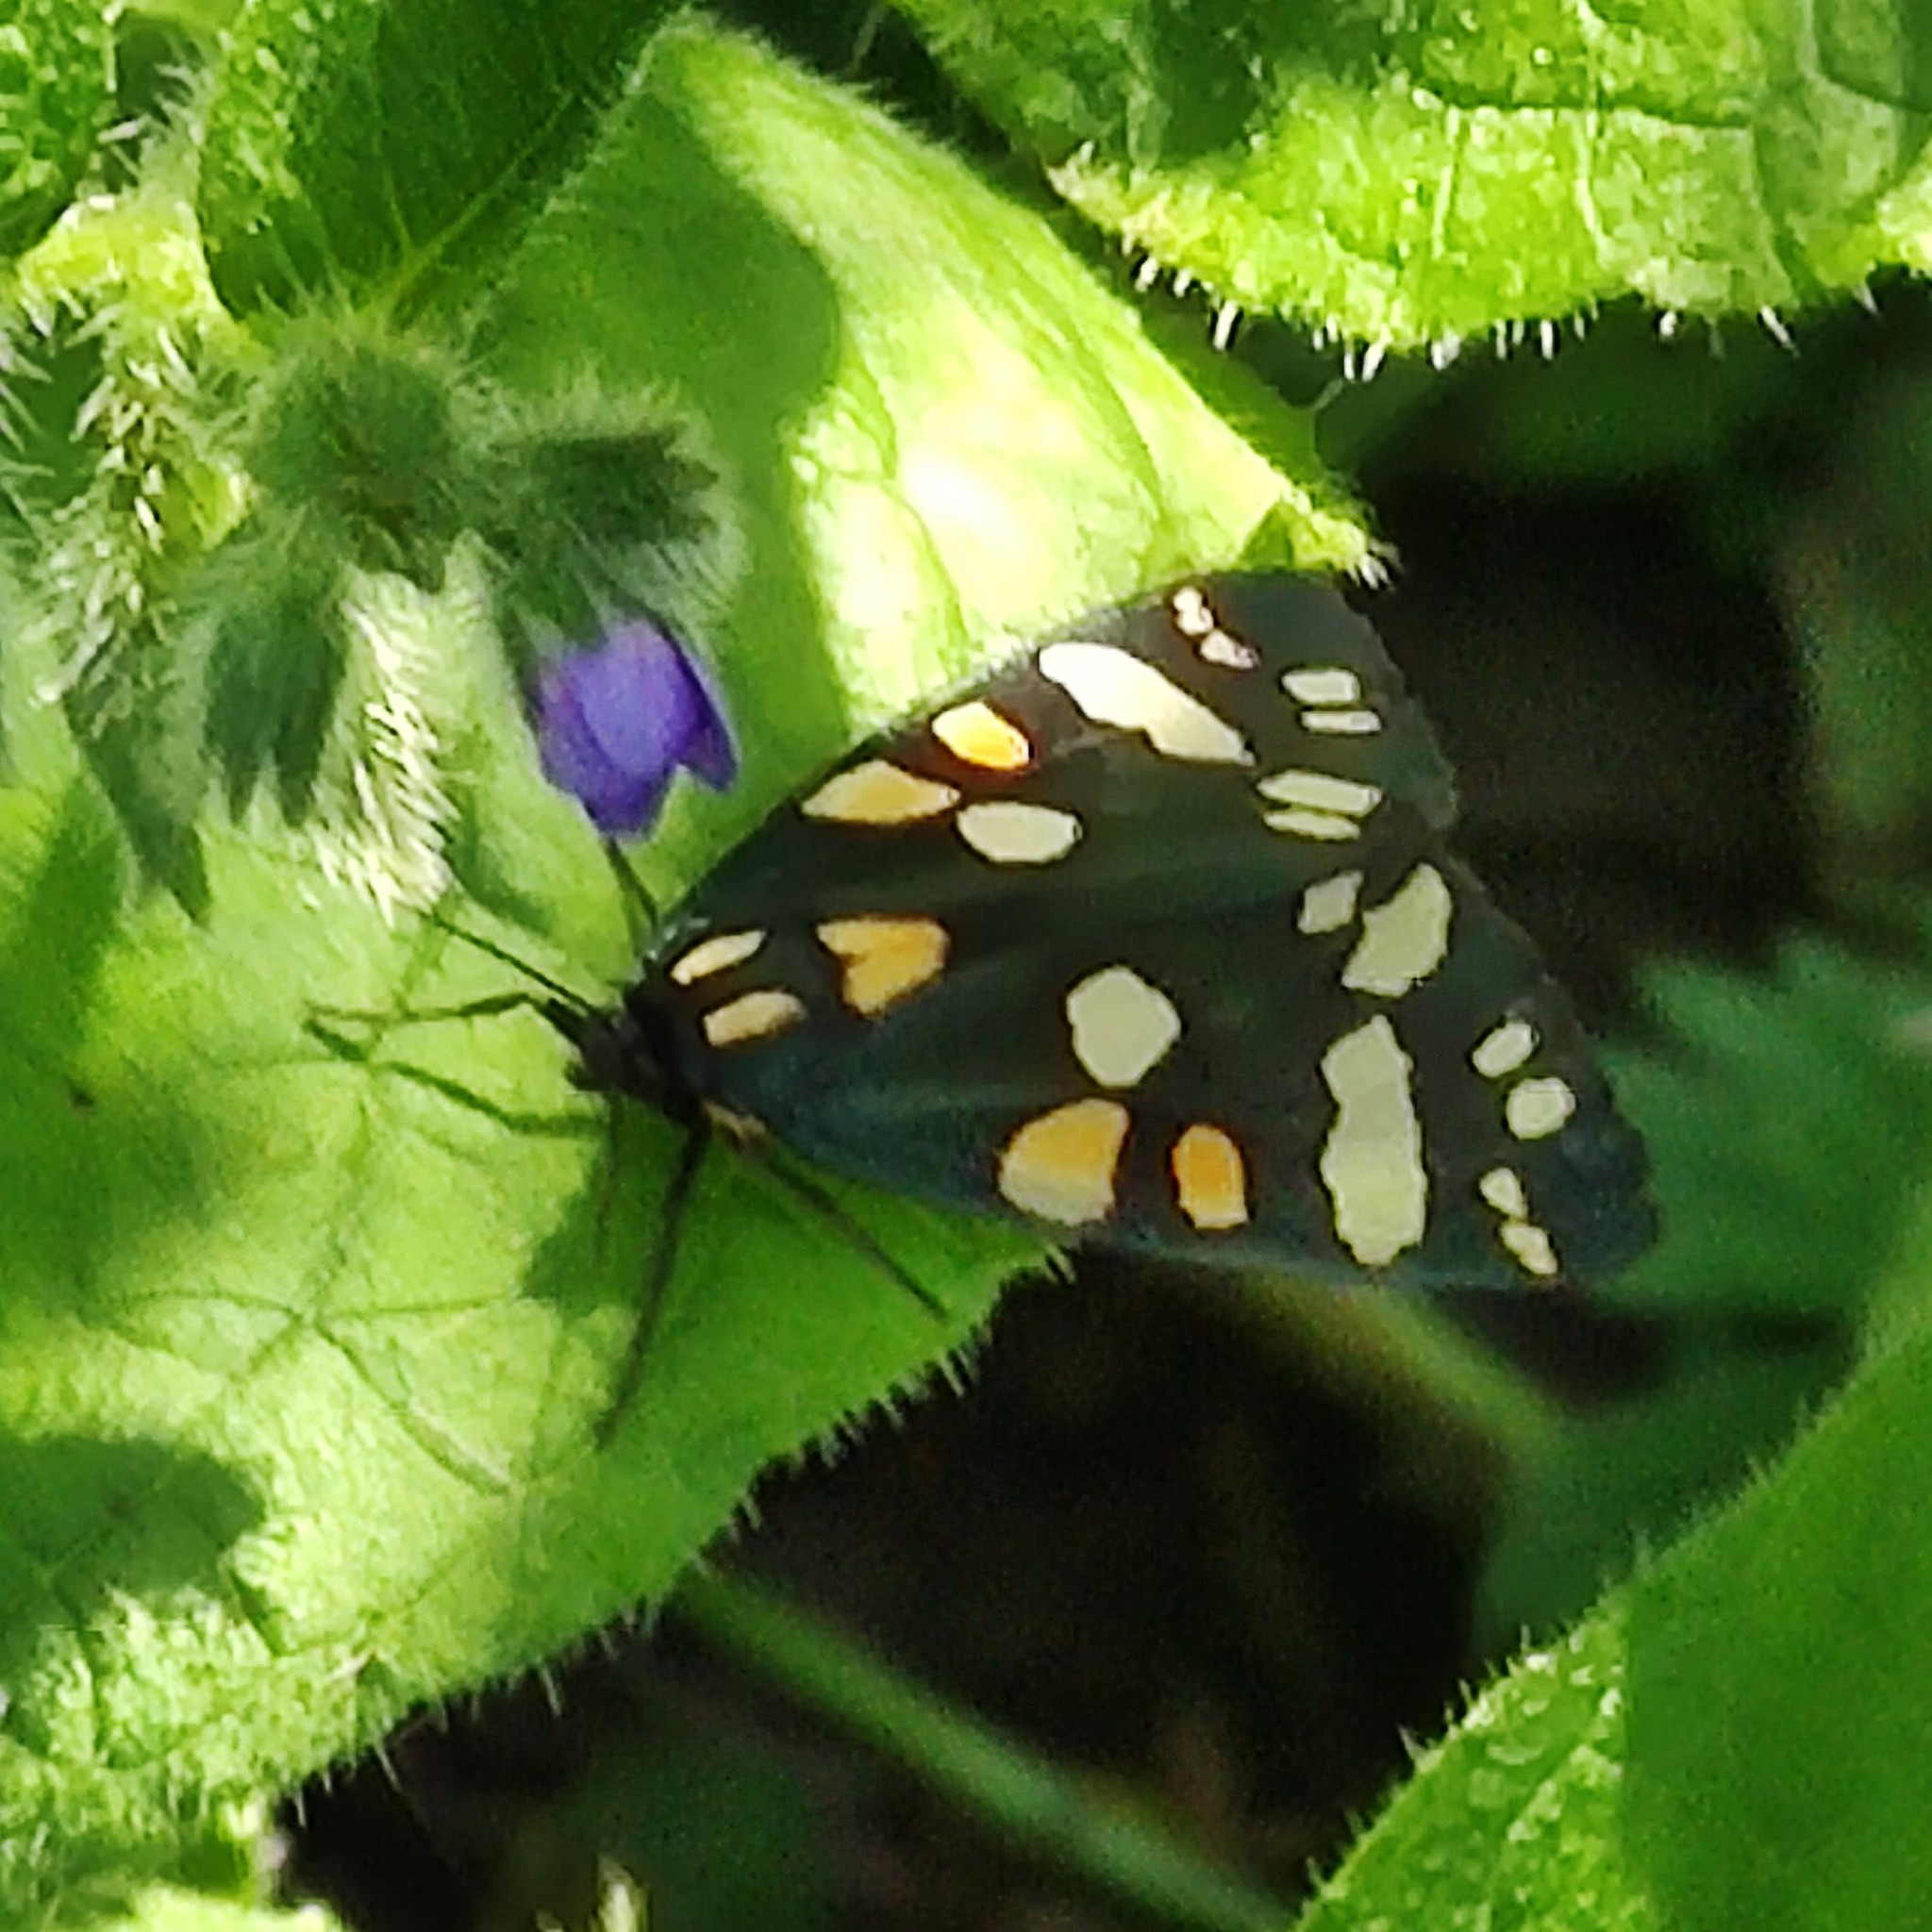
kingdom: Animalia
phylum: Arthropoda
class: Insecta
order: Lepidoptera
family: Erebidae
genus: Callimorpha
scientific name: Callimorpha dominula
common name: Scarlet tiger
